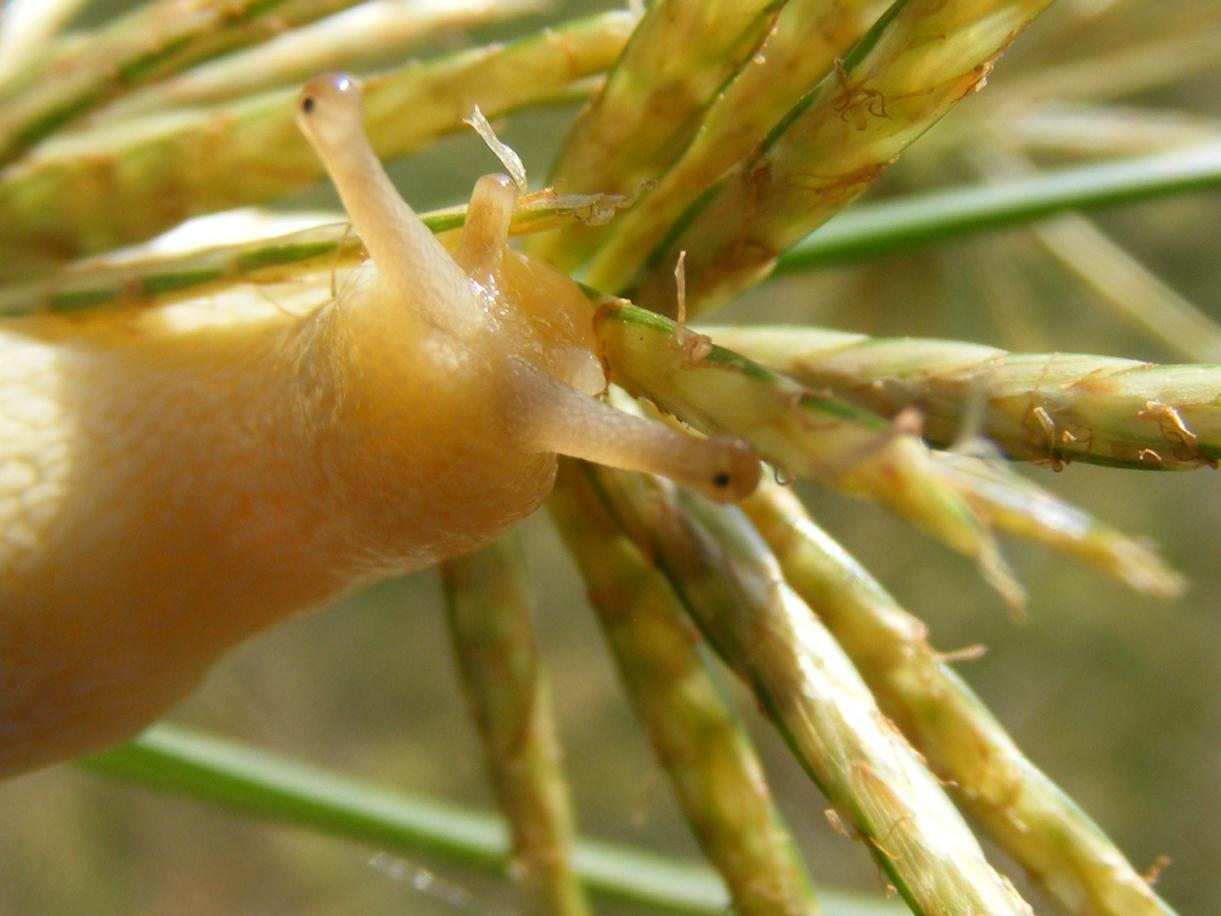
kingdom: Animalia
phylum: Mollusca
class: Gastropoda
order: Stylommatophora
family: Urocyclidae
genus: Elisolimax
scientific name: Elisolimax flavescens
